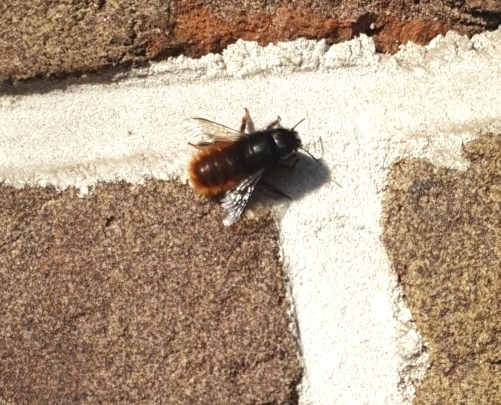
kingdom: Animalia
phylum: Arthropoda
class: Insecta
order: Hymenoptera
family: Megachilidae
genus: Osmia
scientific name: Osmia cornuta
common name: Mason bee
